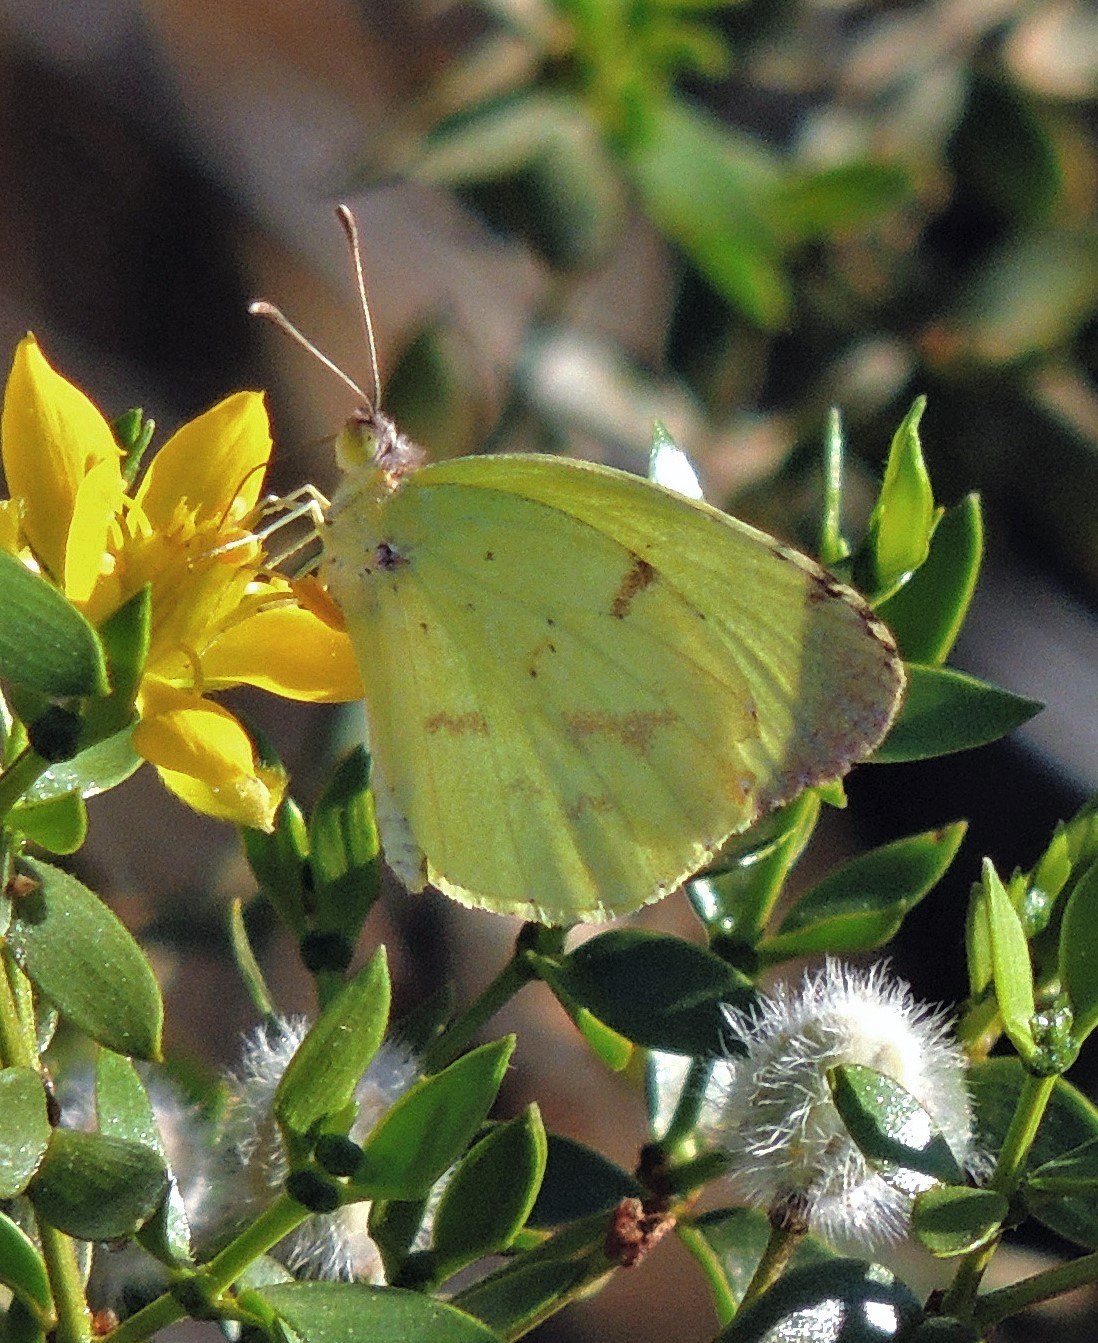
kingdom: Animalia
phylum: Arthropoda
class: Insecta
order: Lepidoptera
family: Pieridae
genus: Teriocolias
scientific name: Teriocolias
